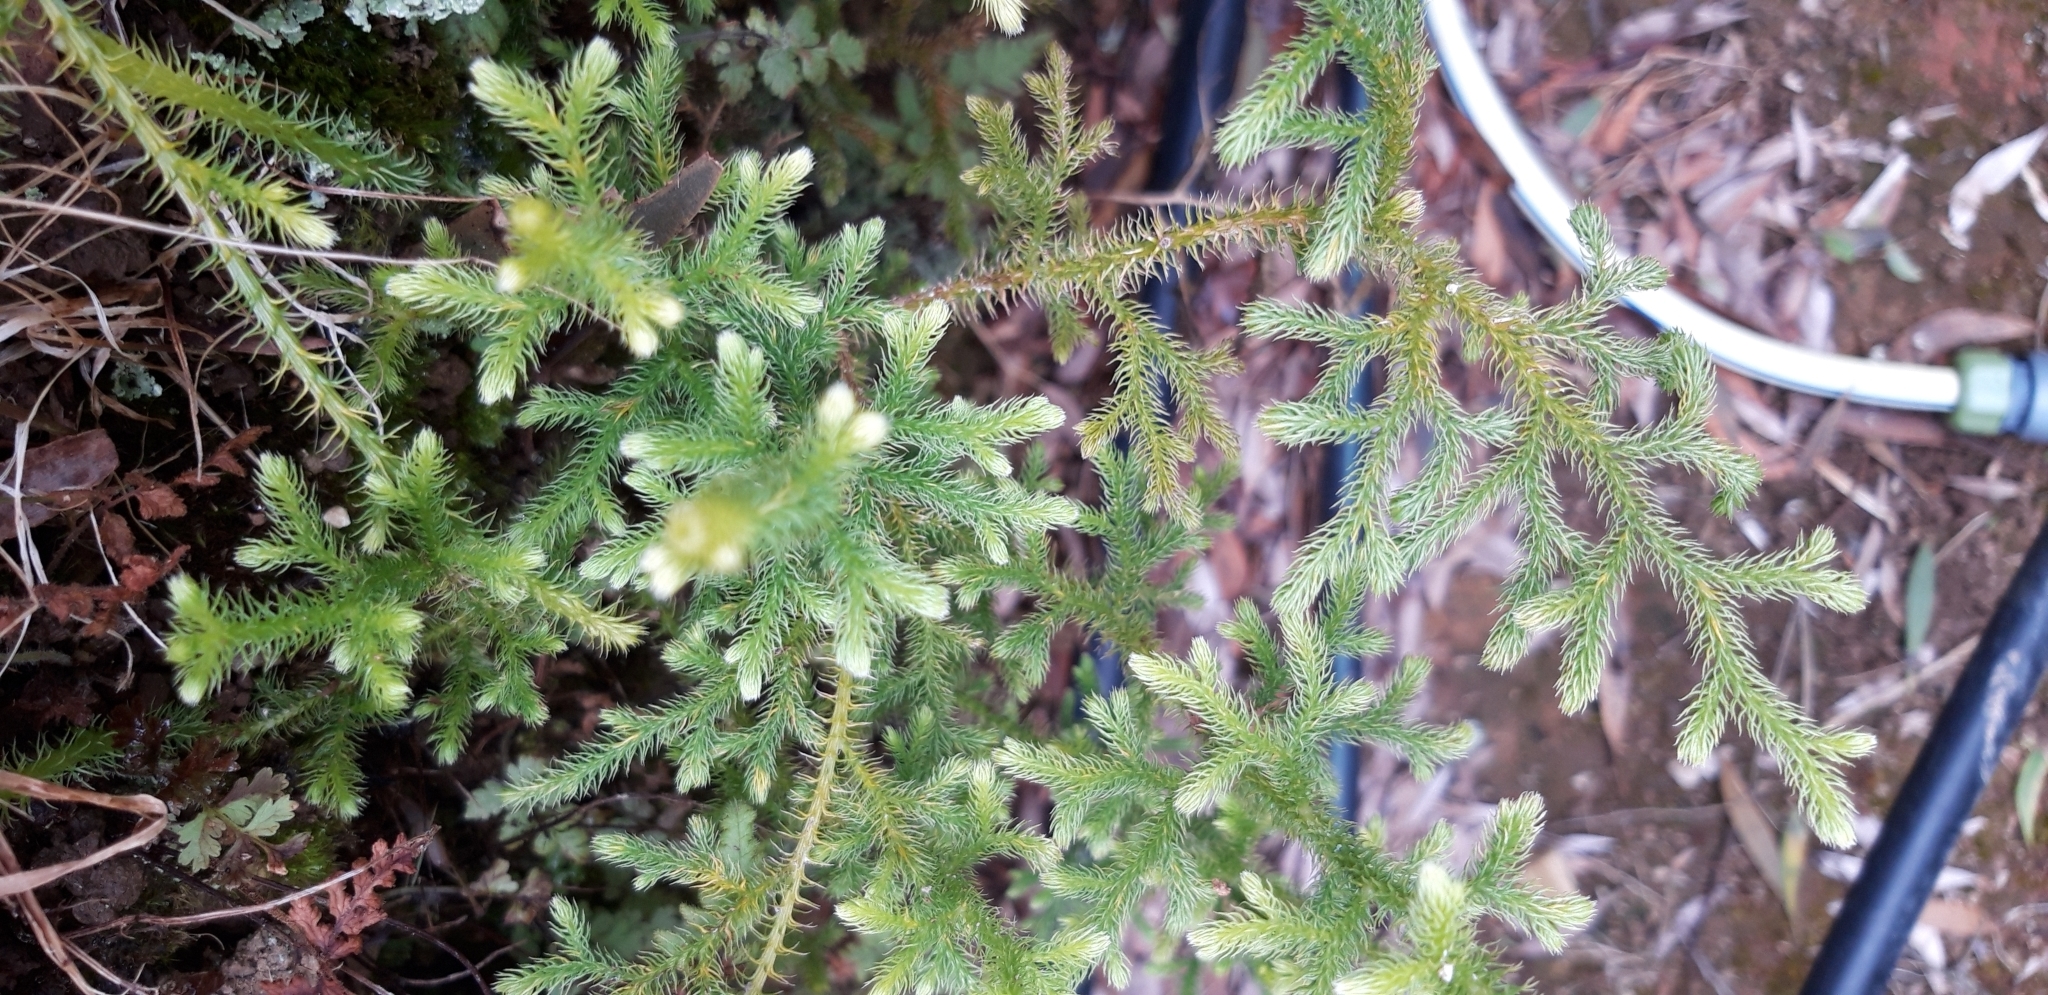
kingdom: Plantae
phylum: Tracheophyta
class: Lycopodiopsida
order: Lycopodiales
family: Lycopodiaceae
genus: Palhinhaea
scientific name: Palhinhaea cernua
